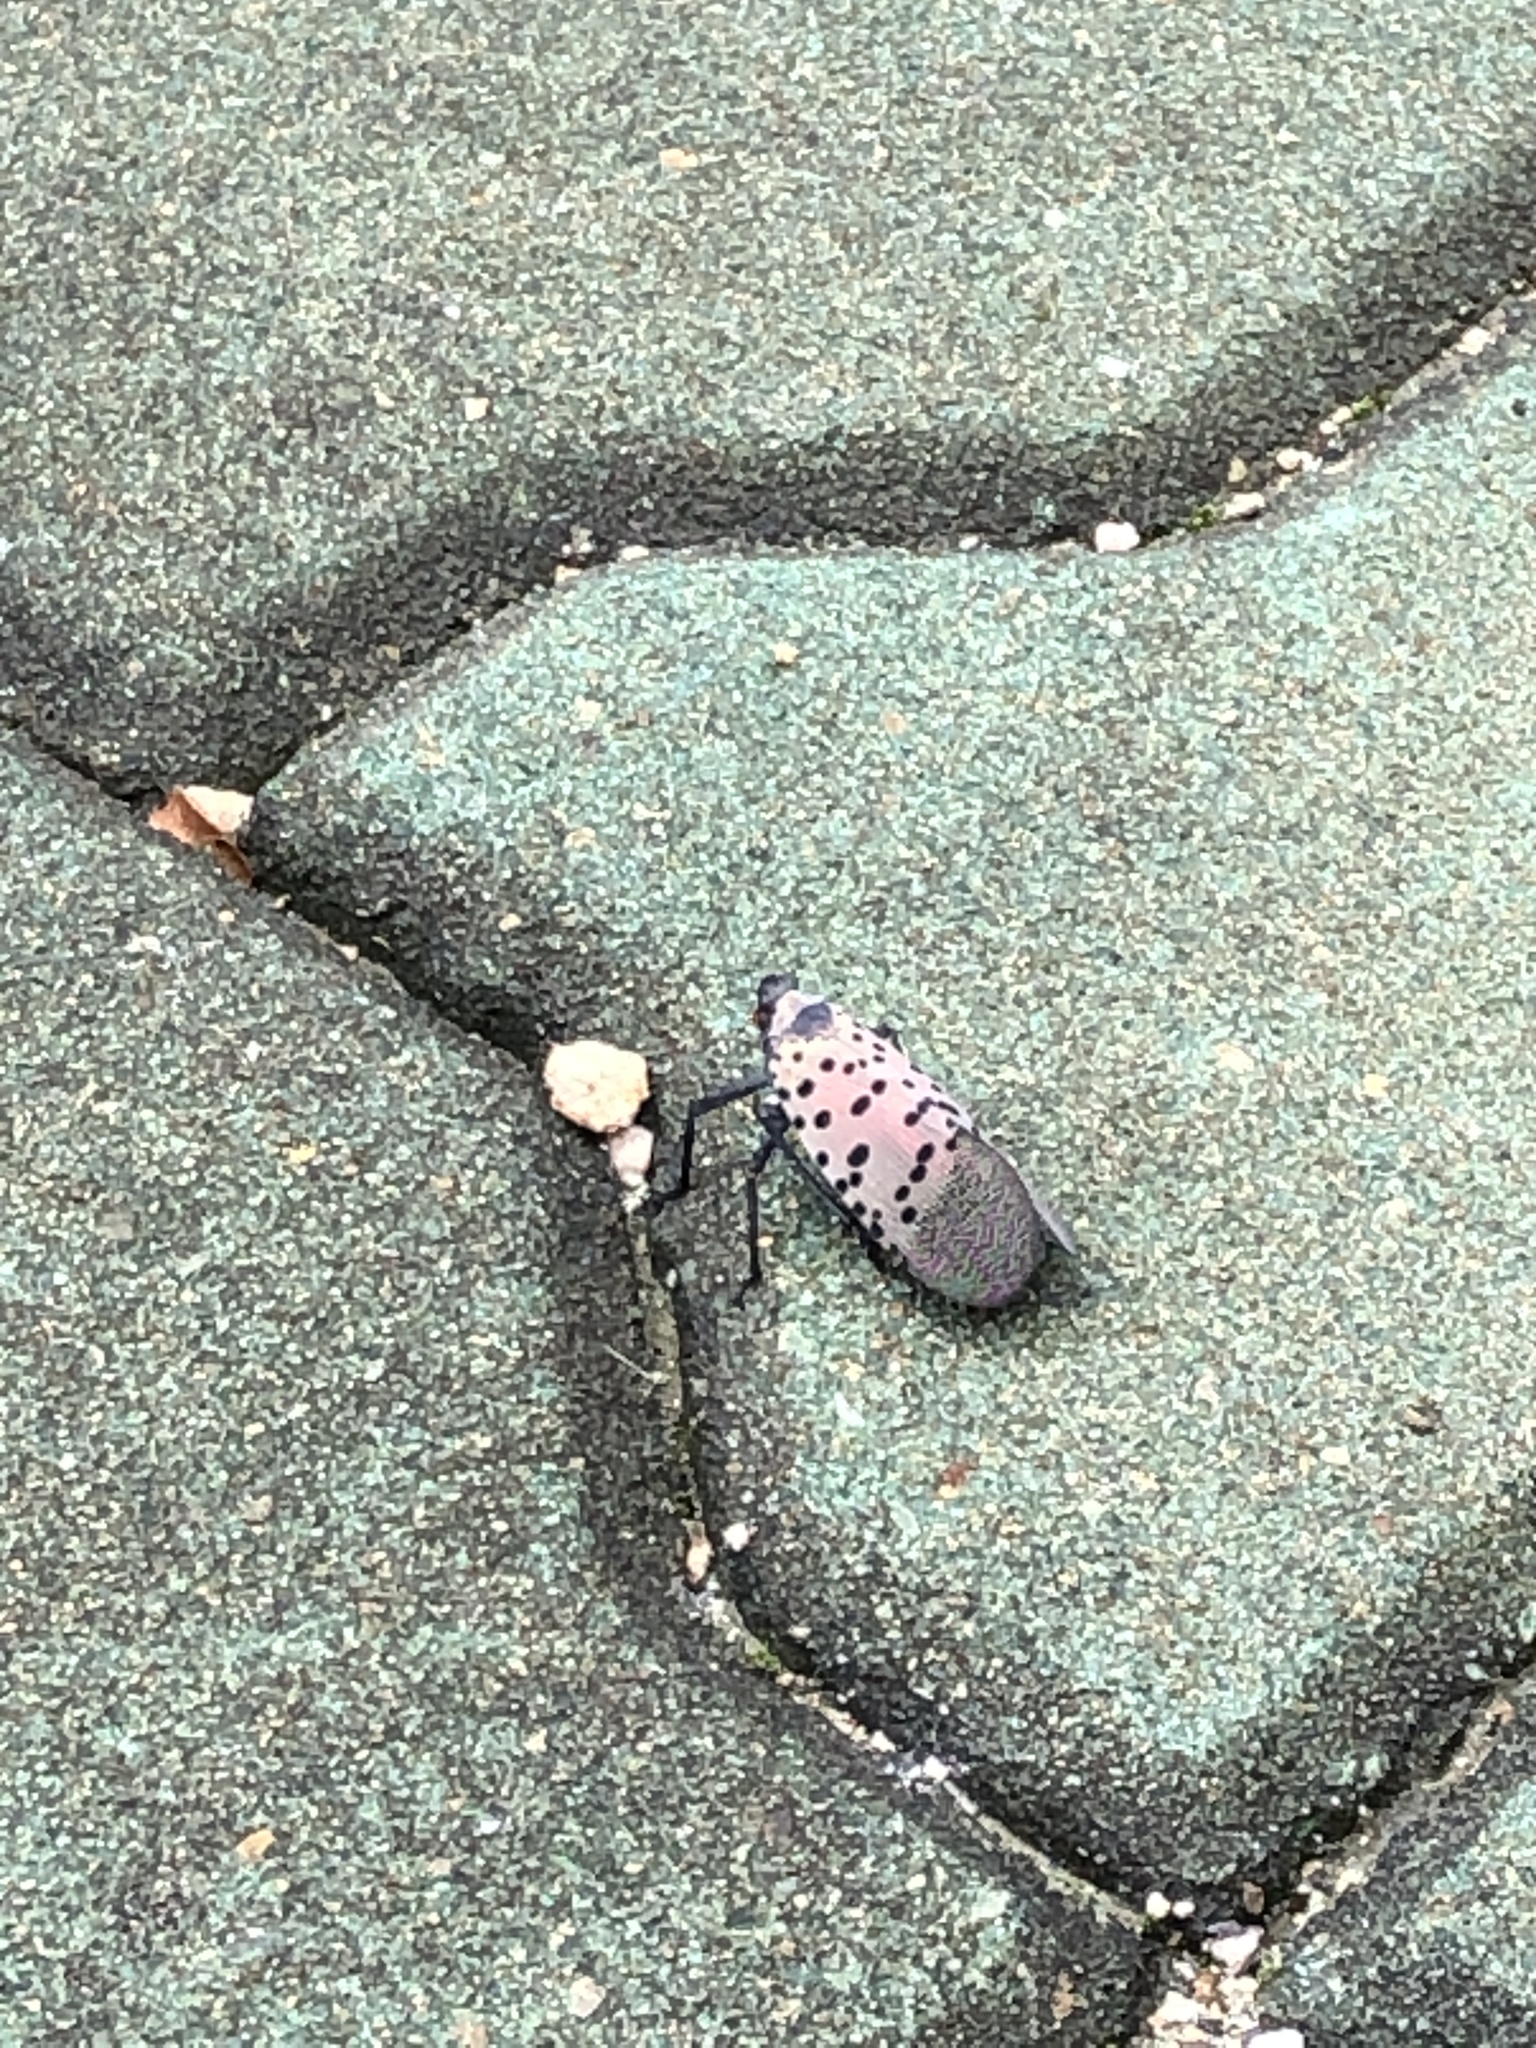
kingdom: Animalia
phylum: Arthropoda
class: Insecta
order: Hemiptera
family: Fulgoridae
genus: Lycorma
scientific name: Lycorma delicatula
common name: Spotted lanternfly
